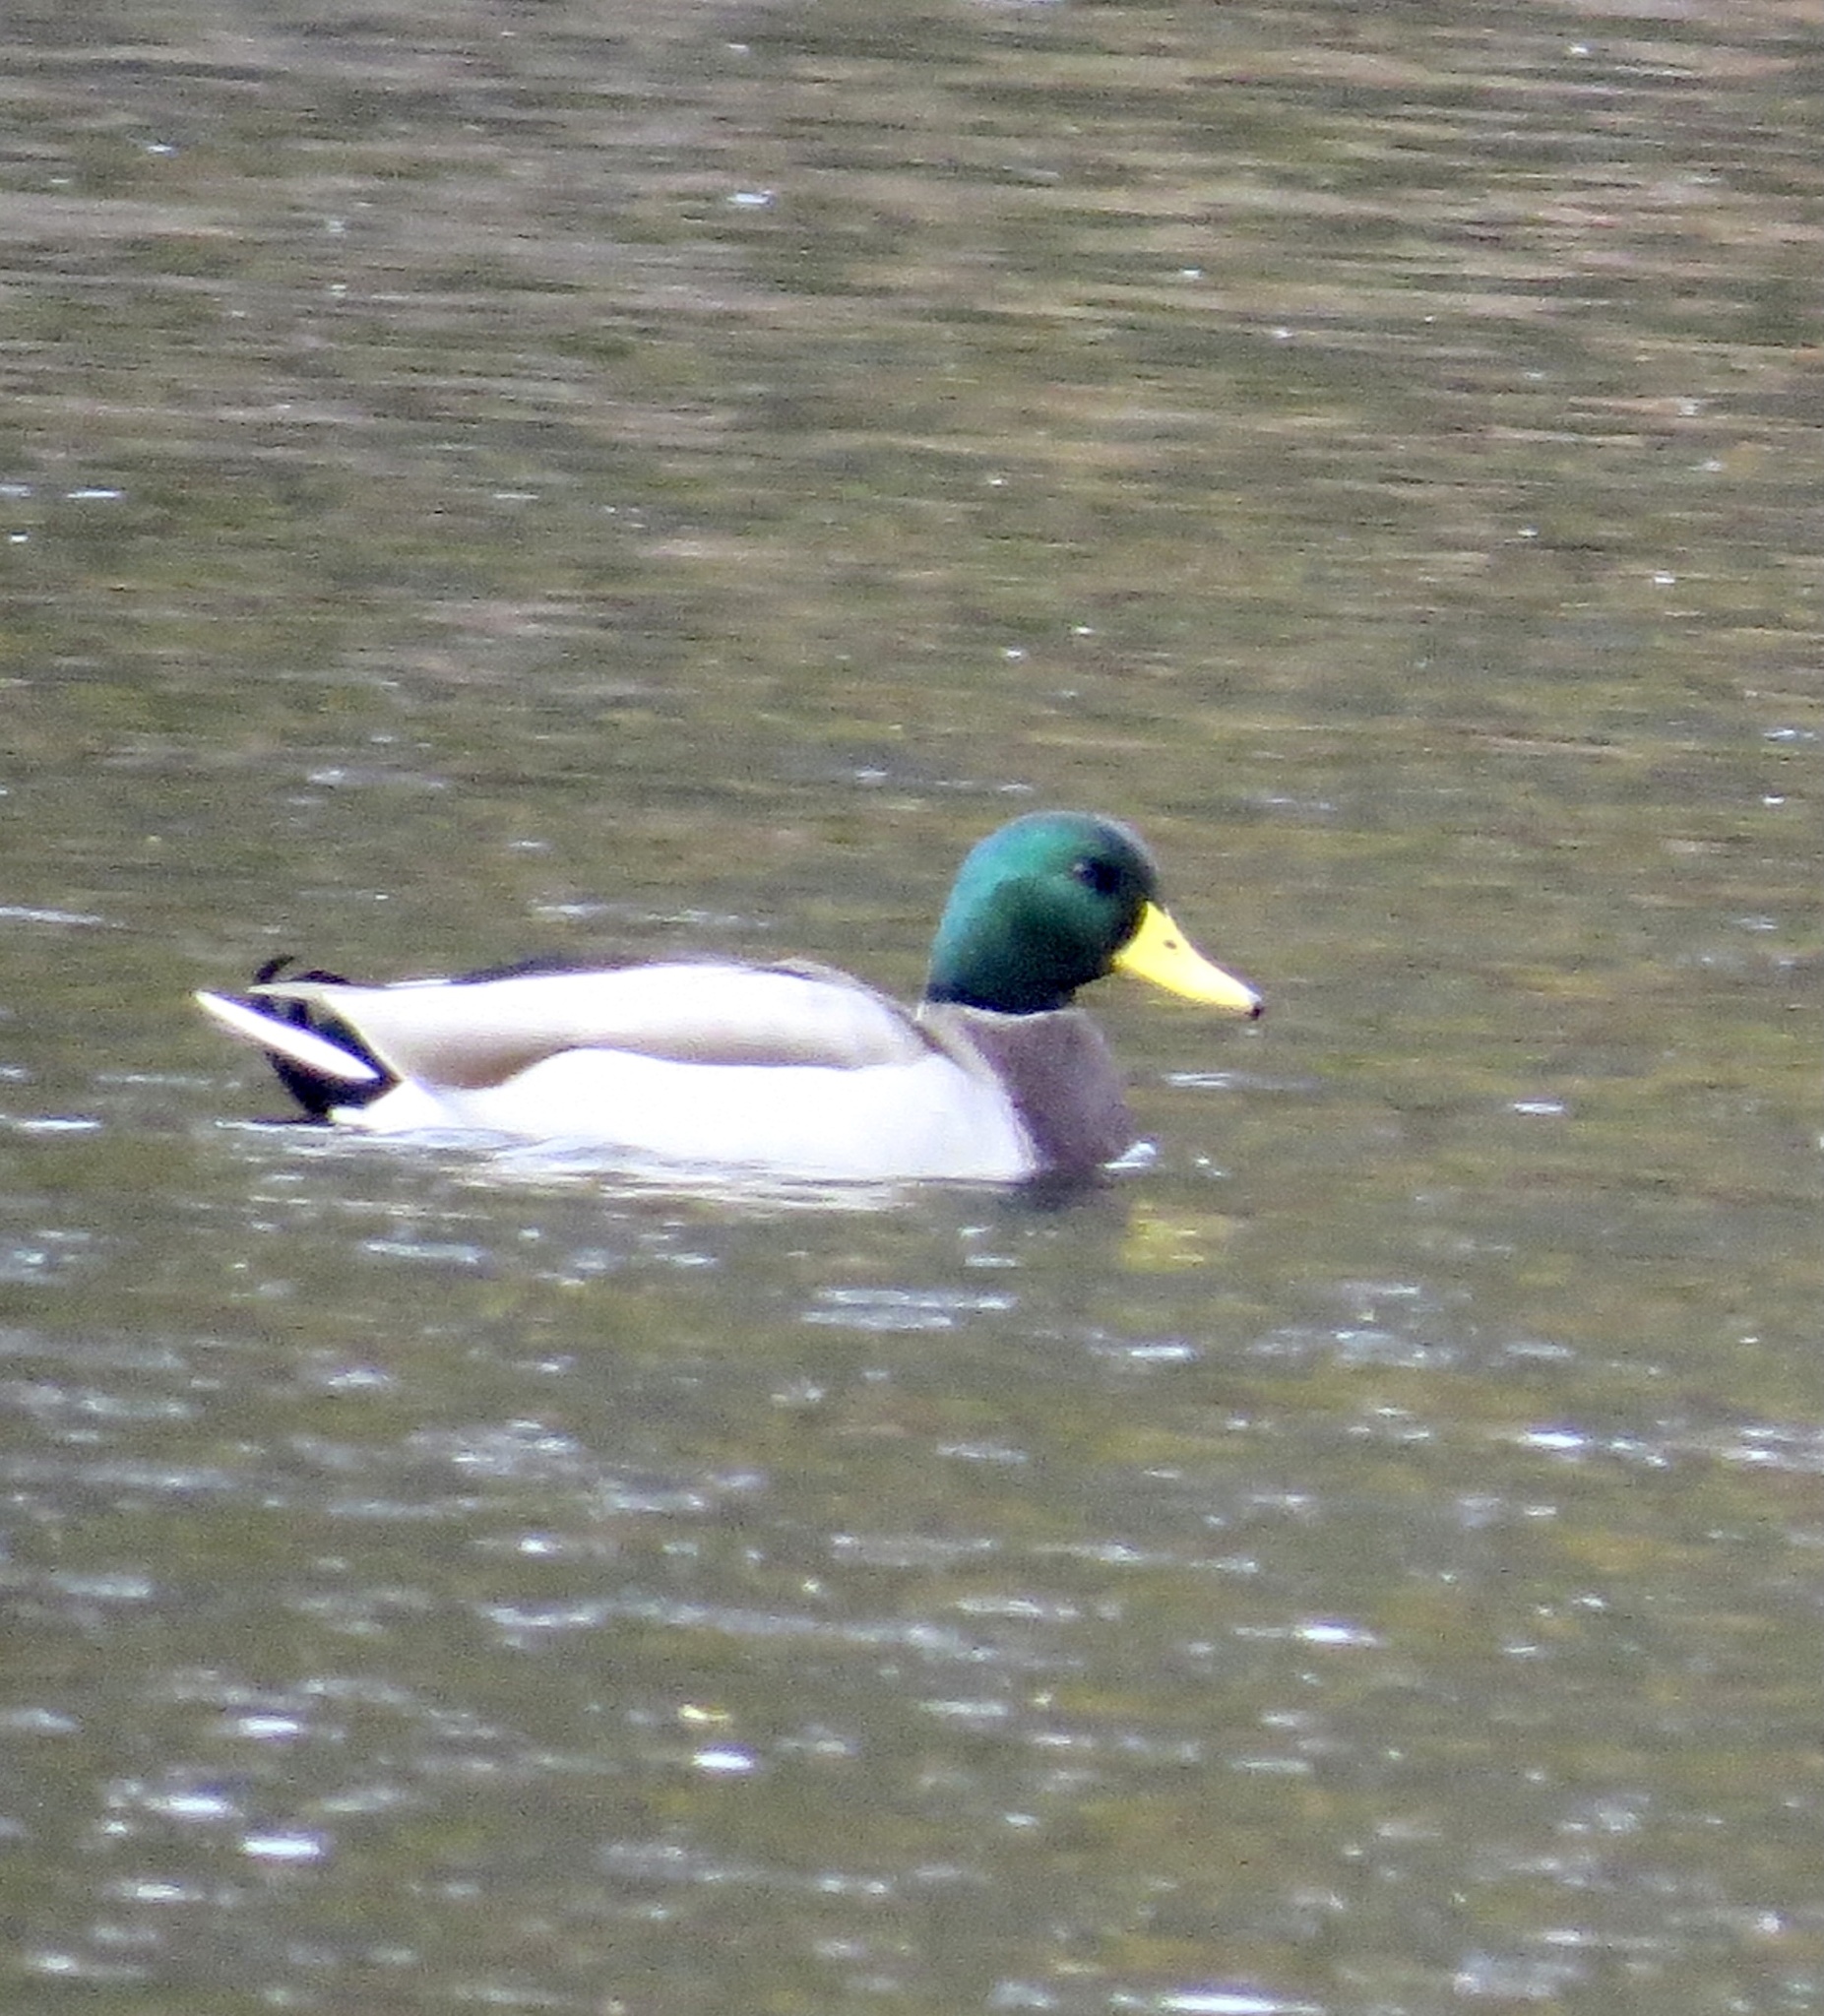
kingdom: Animalia
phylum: Chordata
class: Aves
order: Anseriformes
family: Anatidae
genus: Anas
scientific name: Anas platyrhynchos
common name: Mallard
